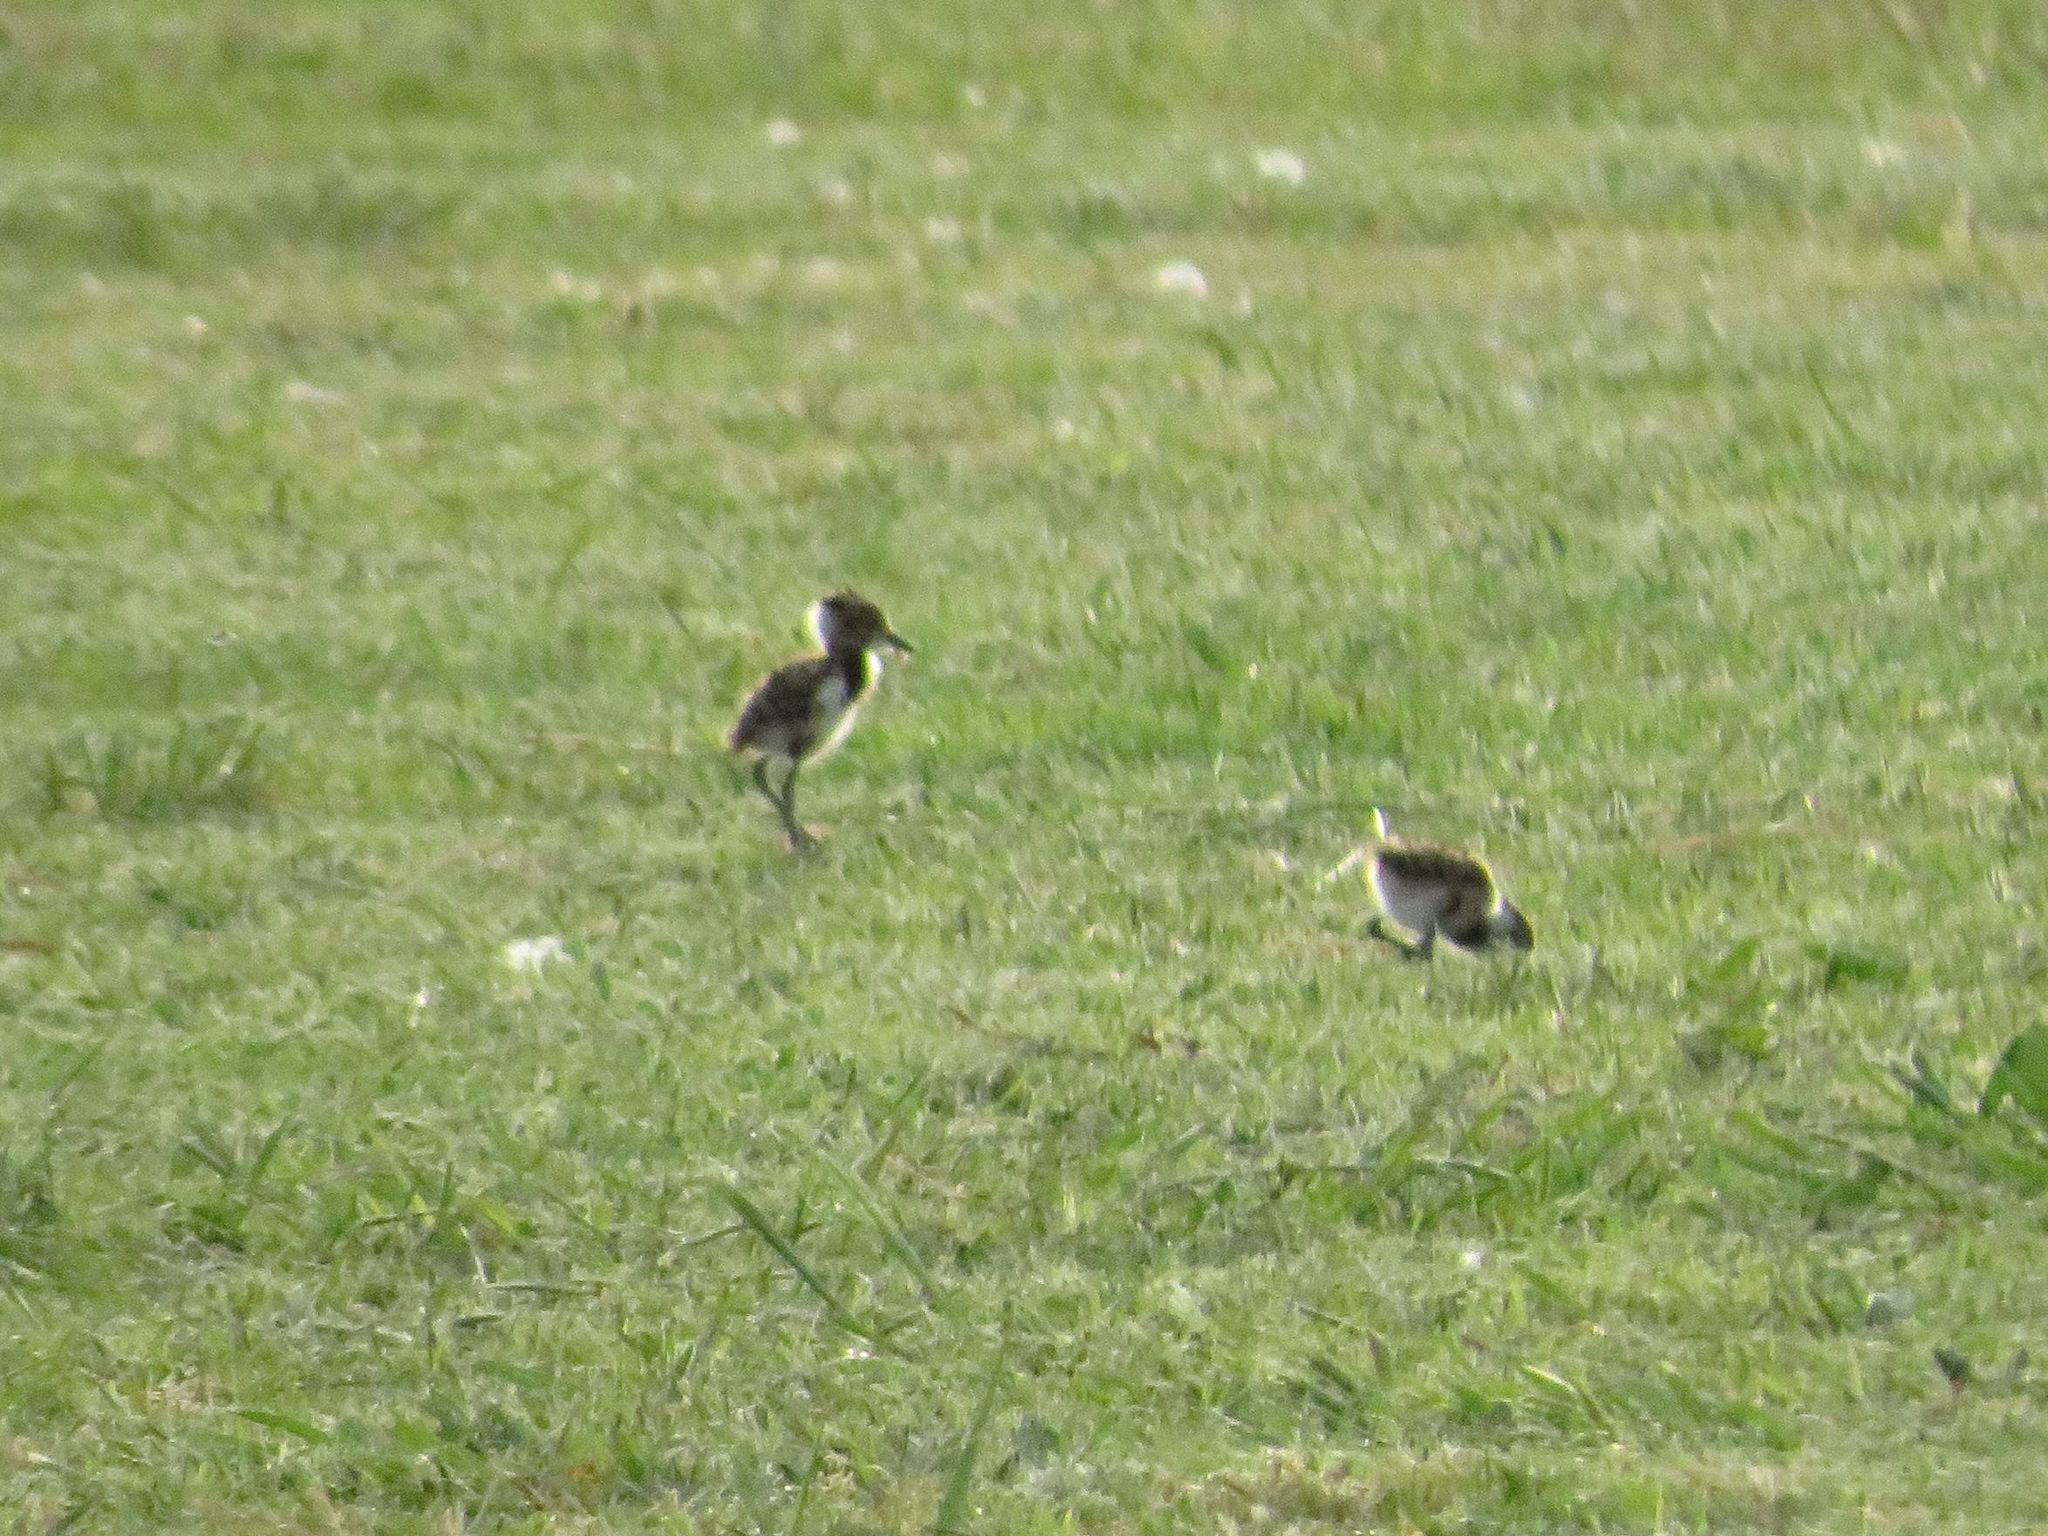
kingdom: Animalia
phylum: Chordata
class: Aves
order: Charadriiformes
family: Charadriidae
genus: Vanellus
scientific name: Vanellus chilensis
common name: Southern lapwing
